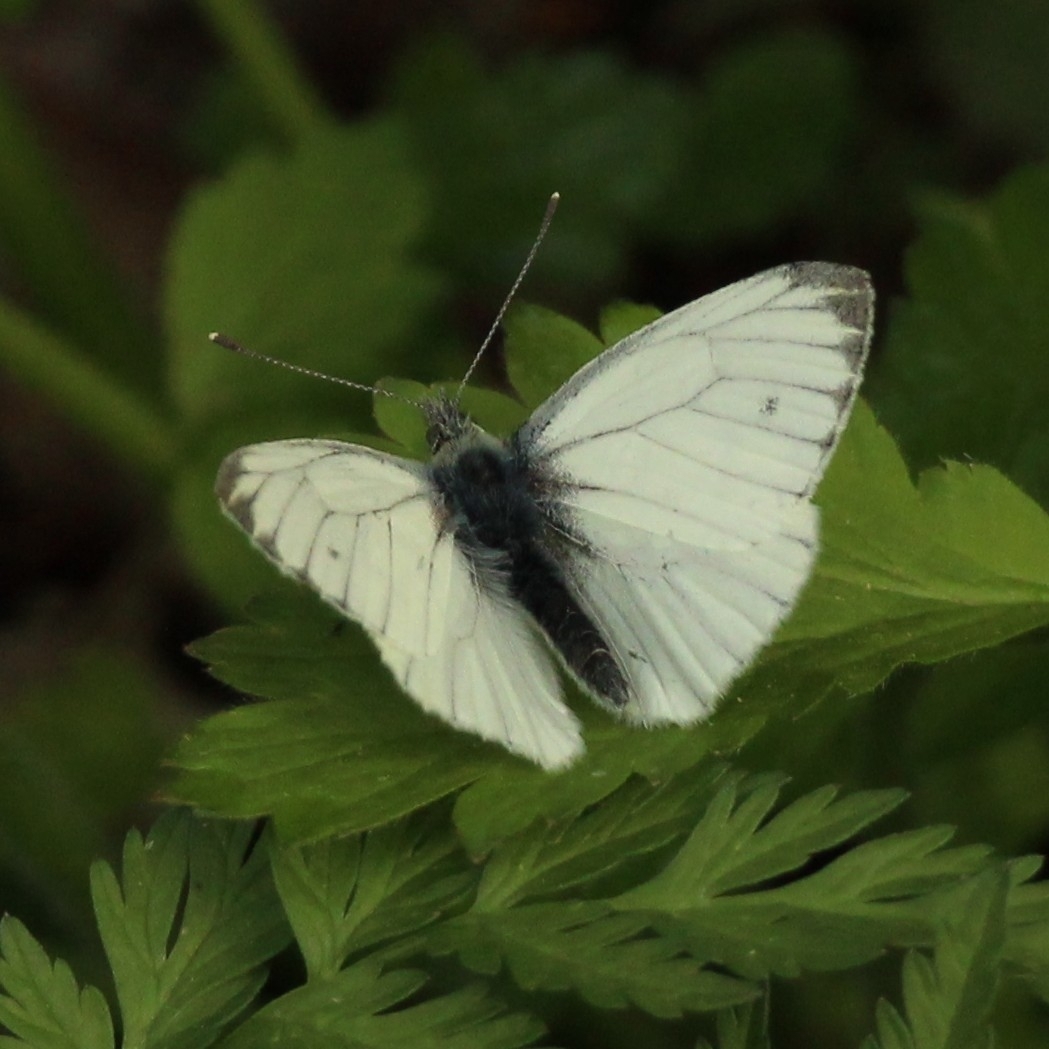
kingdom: Animalia
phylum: Arthropoda
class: Insecta
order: Lepidoptera
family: Pieridae
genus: Pieris
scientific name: Pieris napi
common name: Green-veined white
